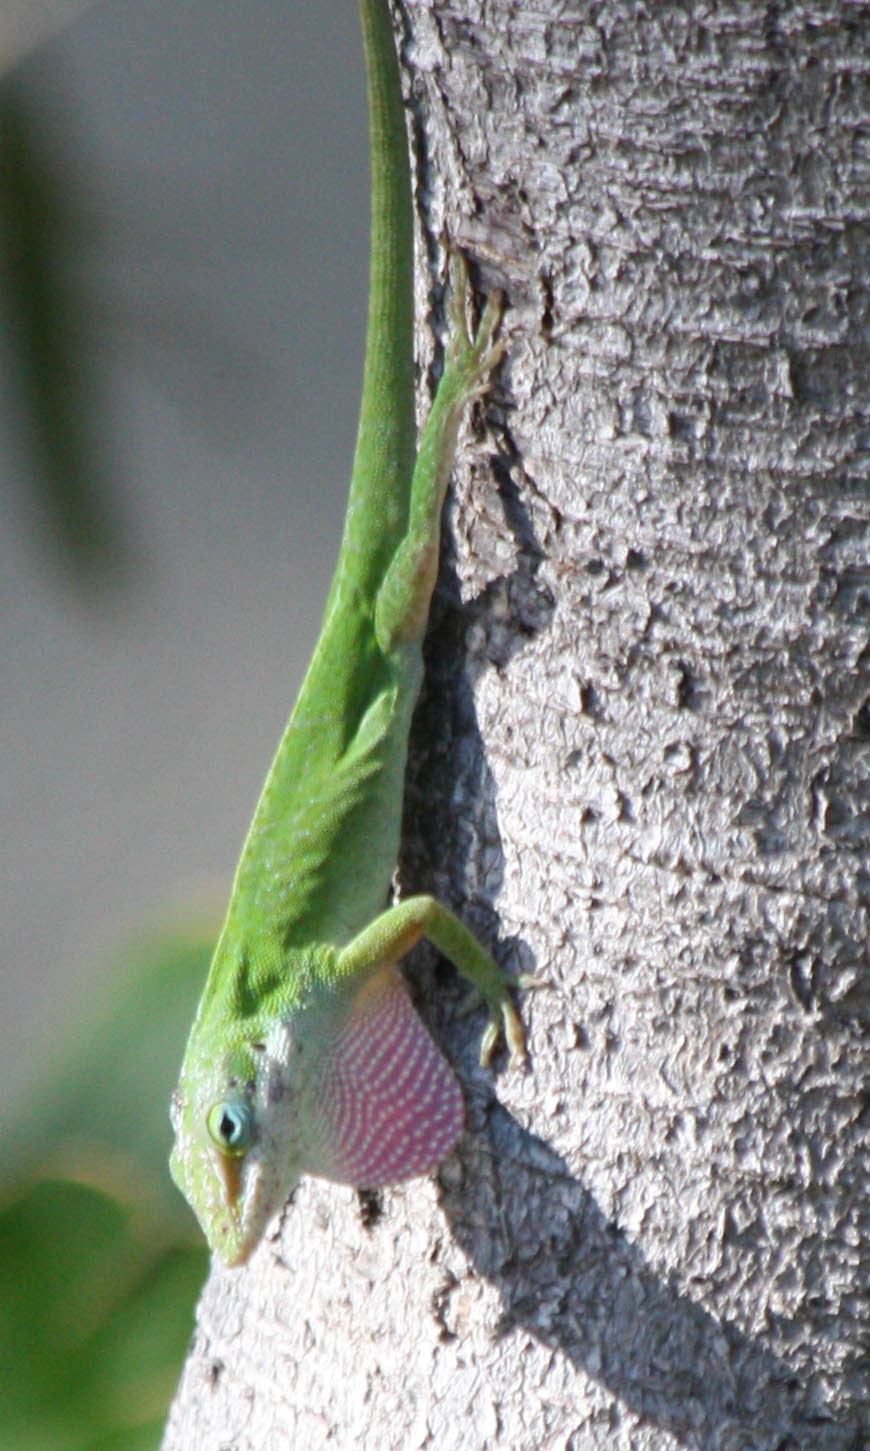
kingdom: Animalia
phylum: Chordata
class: Squamata
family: Dactyloidae
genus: Anolis
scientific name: Anolis carolinensis
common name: Green anole
